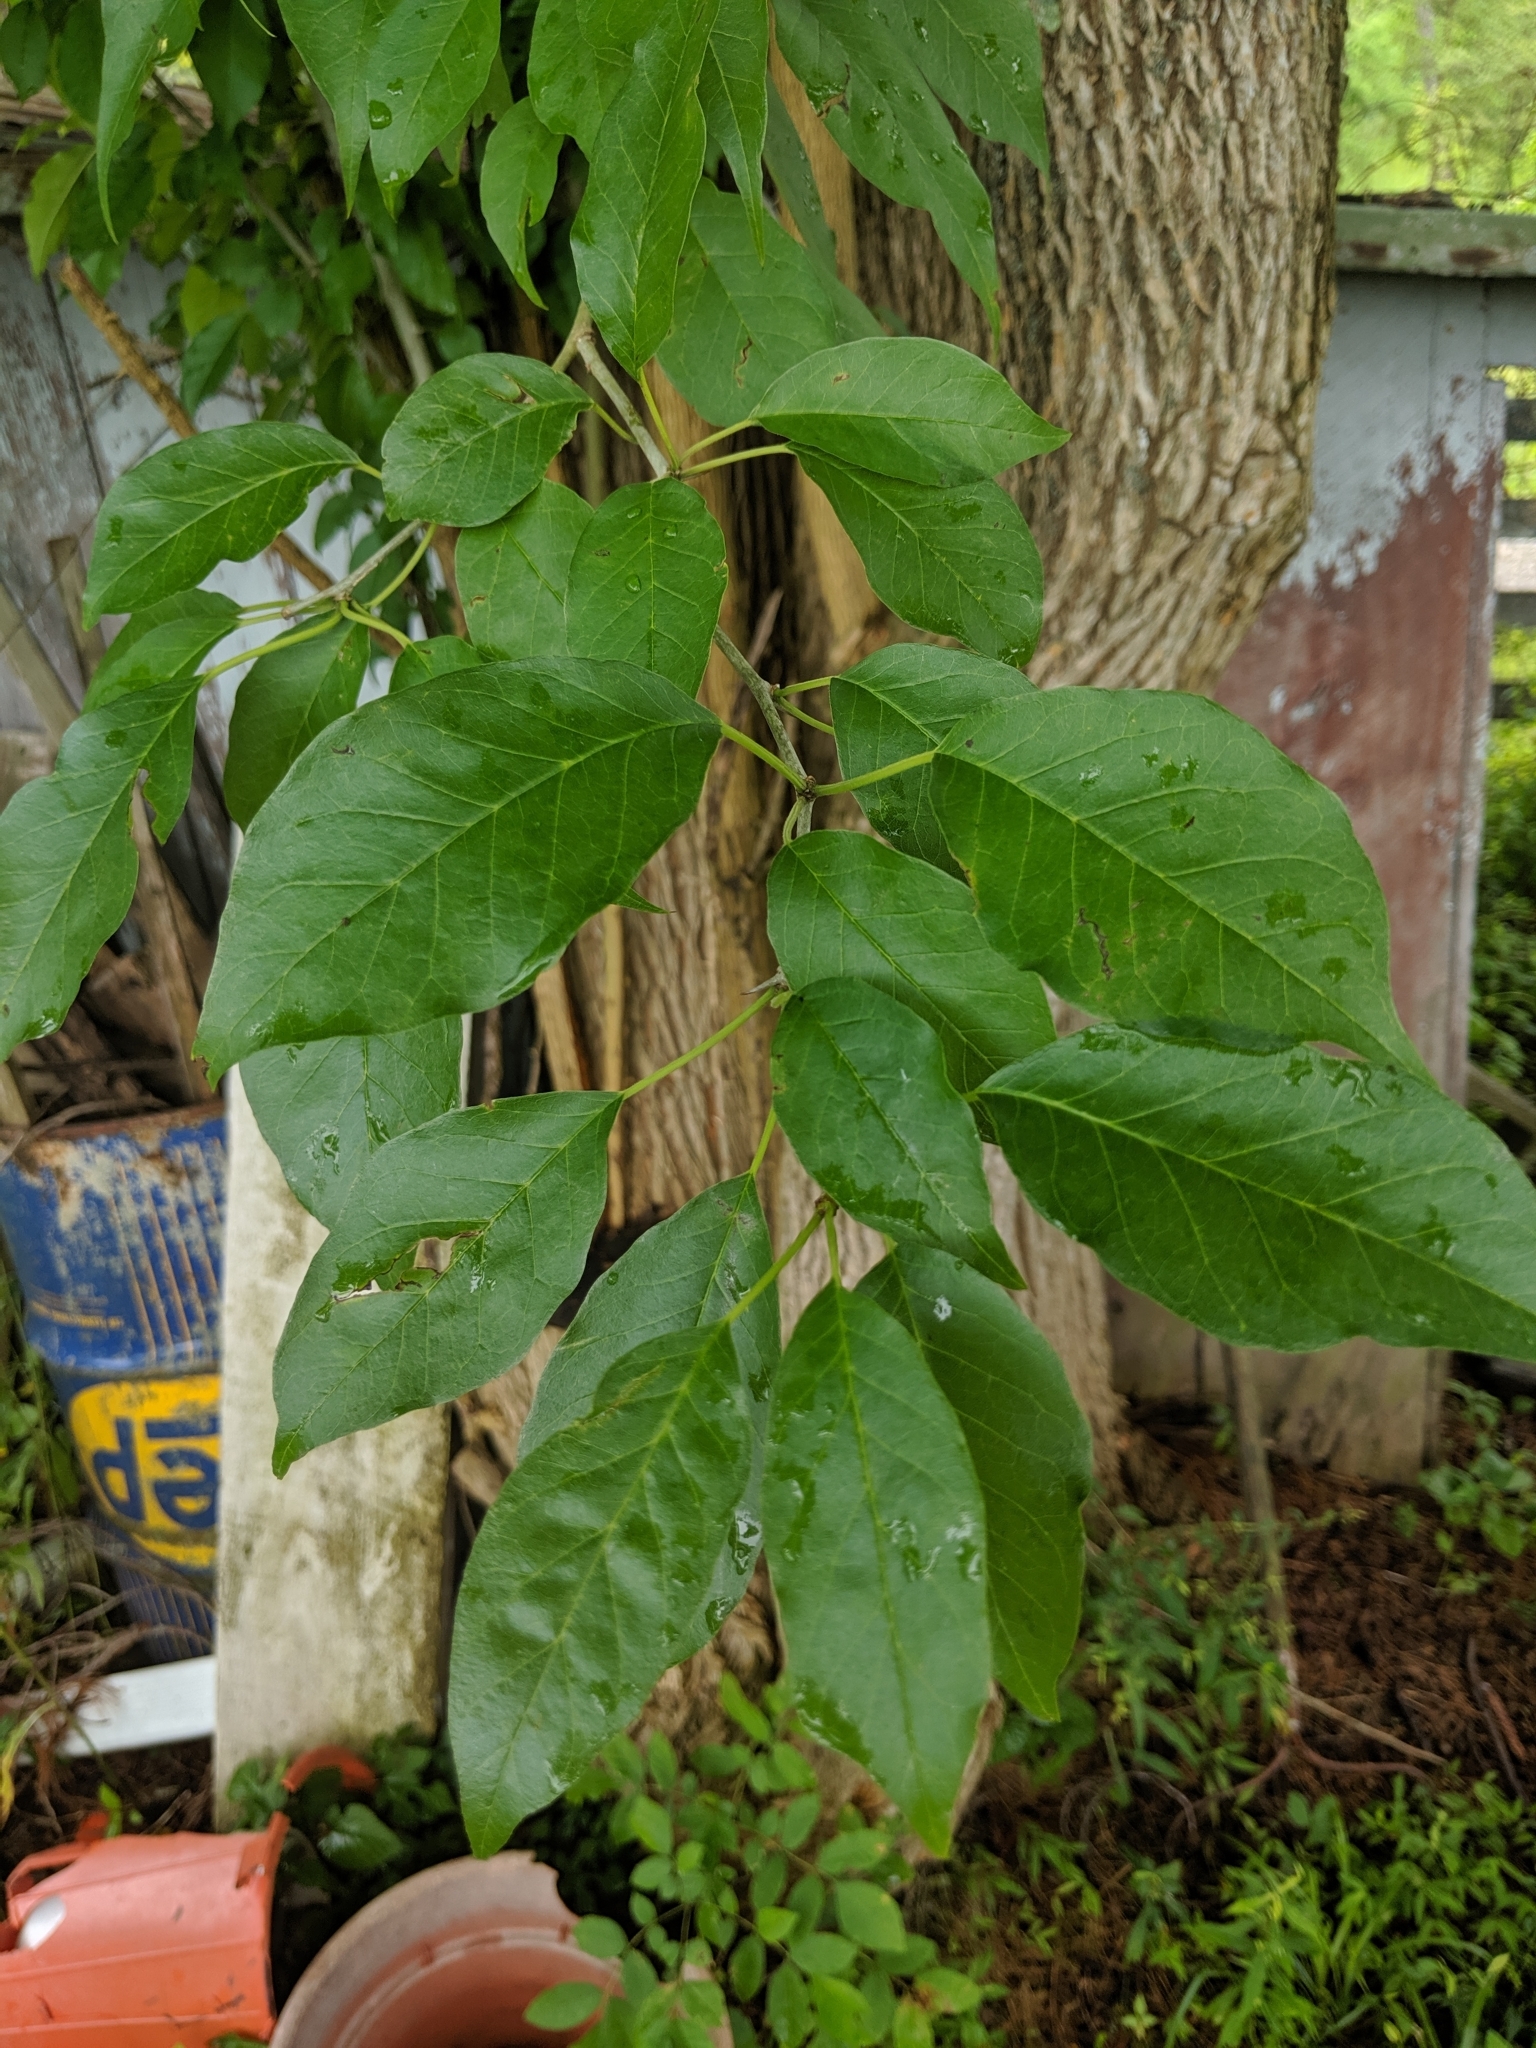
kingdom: Plantae
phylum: Tracheophyta
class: Magnoliopsida
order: Rosales
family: Moraceae
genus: Maclura
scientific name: Maclura pomifera
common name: Osage-orange
